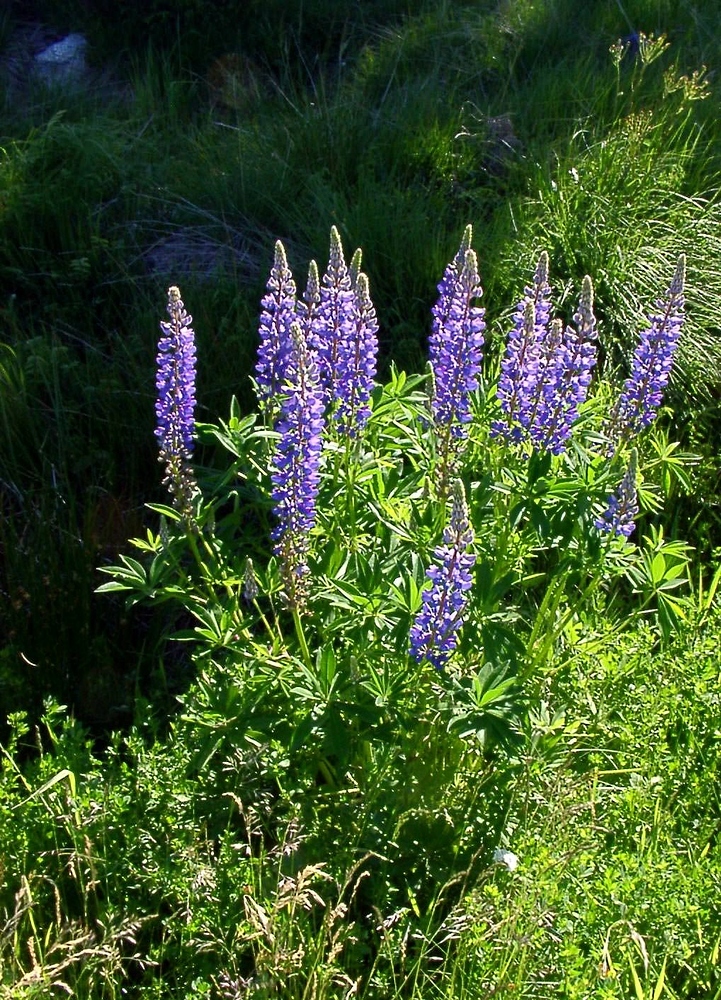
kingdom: Plantae
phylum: Tracheophyta
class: Magnoliopsida
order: Fabales
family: Fabaceae
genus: Lupinus
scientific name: Lupinus polyphyllus
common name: Garden lupin
